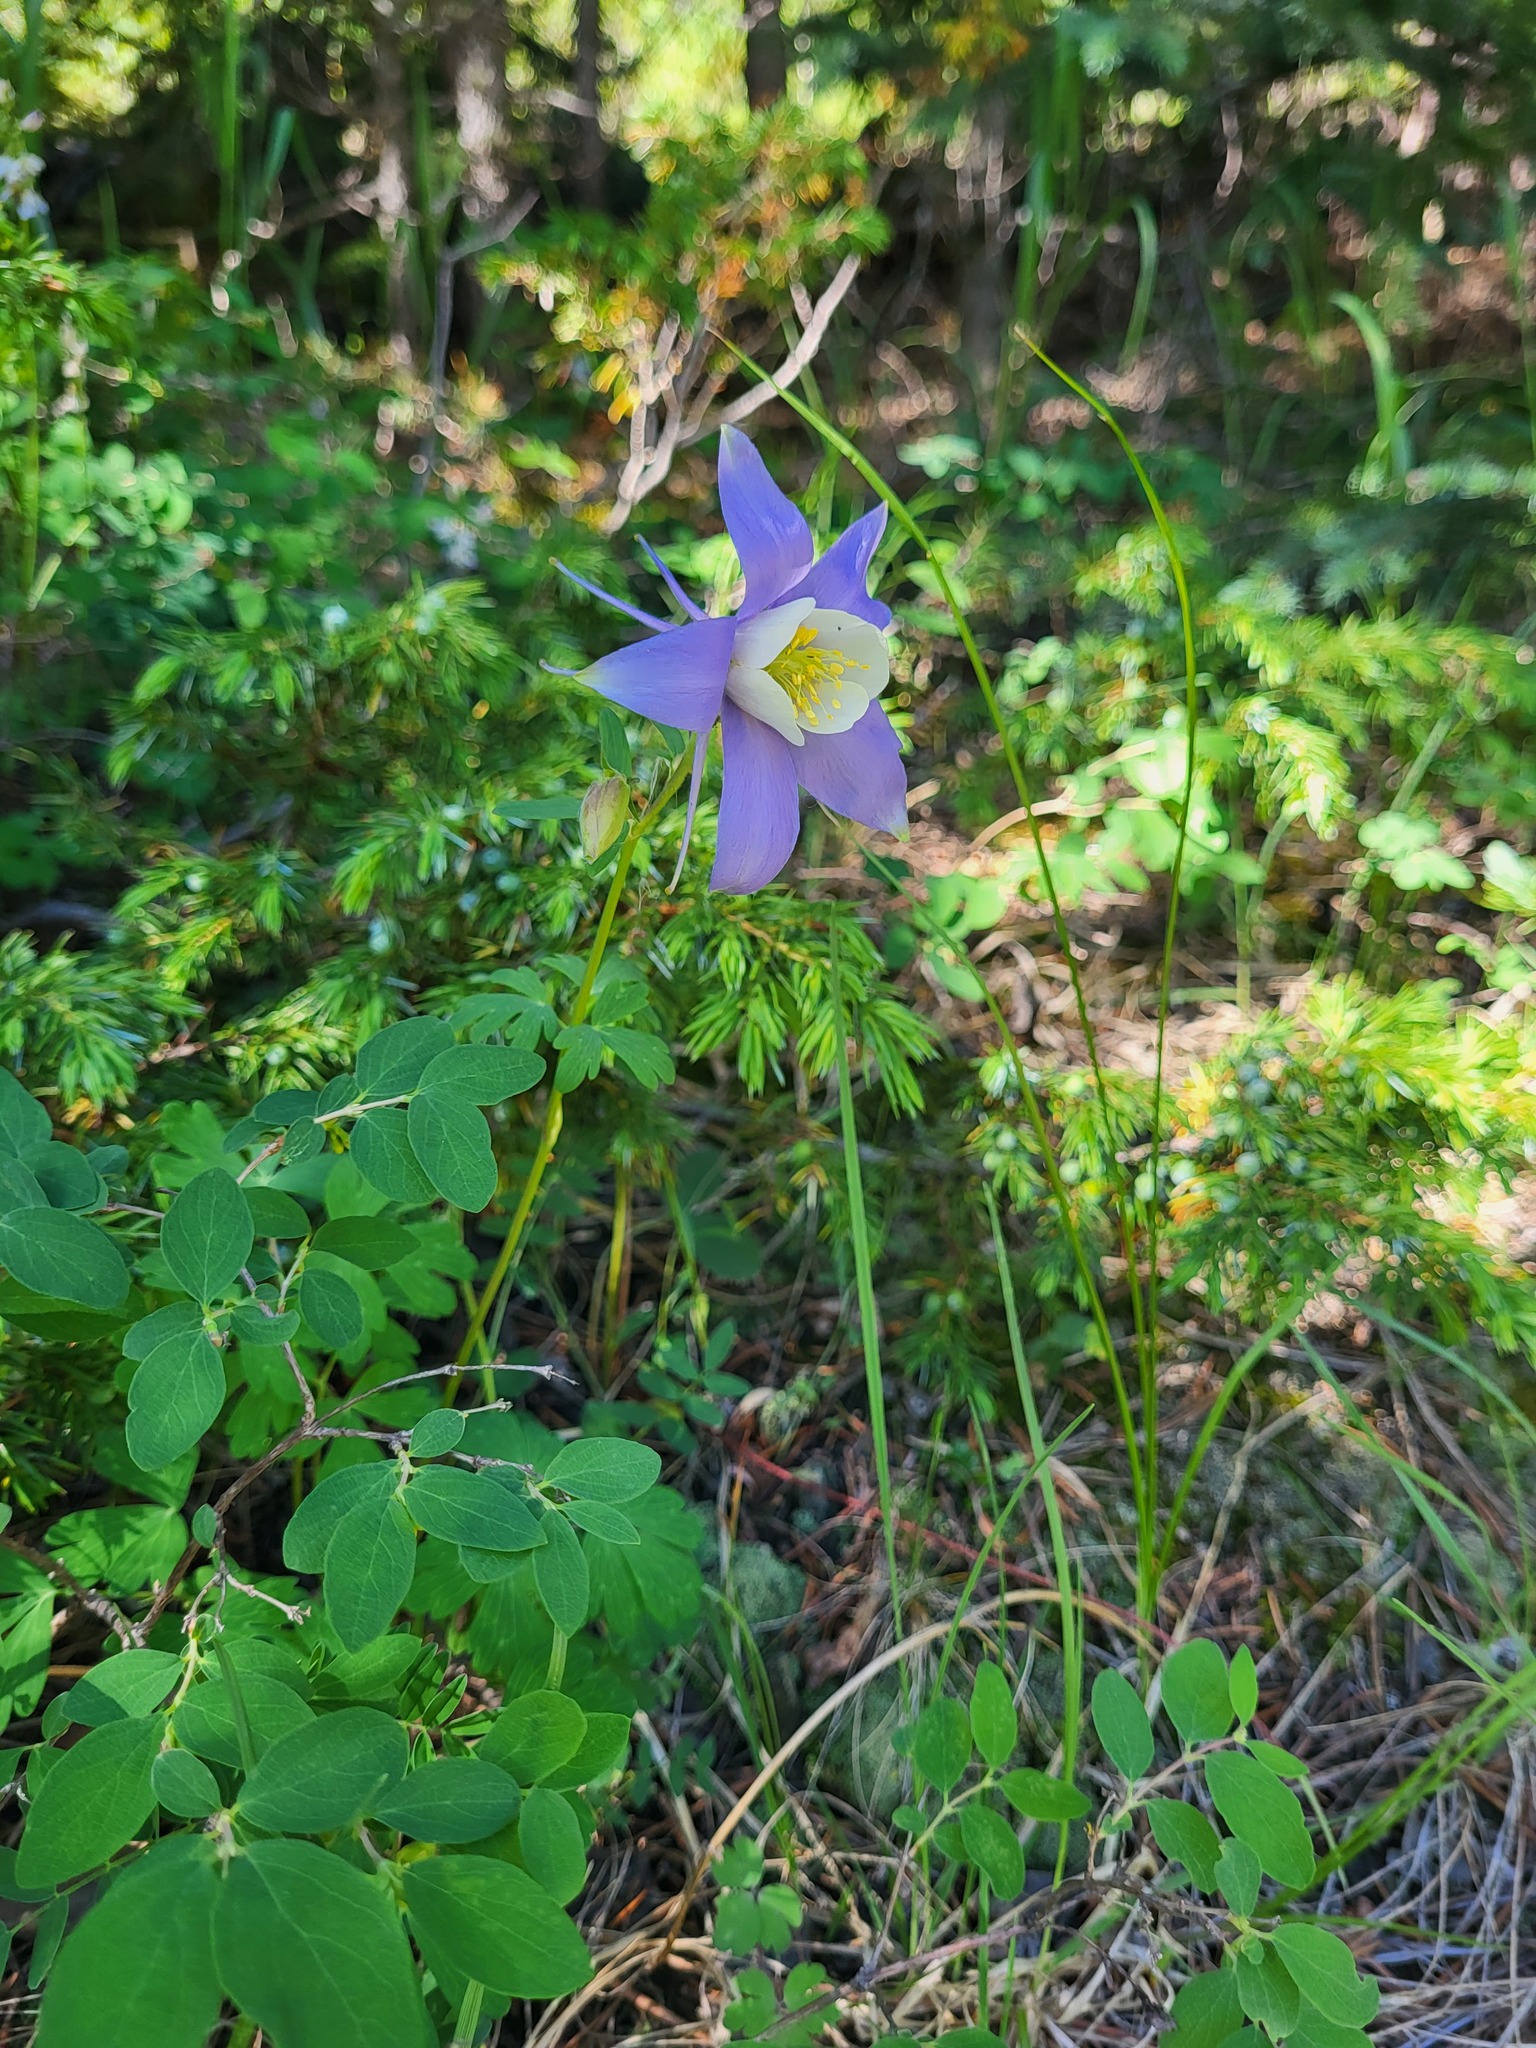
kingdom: Plantae
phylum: Tracheophyta
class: Magnoliopsida
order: Ranunculales
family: Ranunculaceae
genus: Aquilegia
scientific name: Aquilegia coerulea
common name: Rocky mountain columbine
